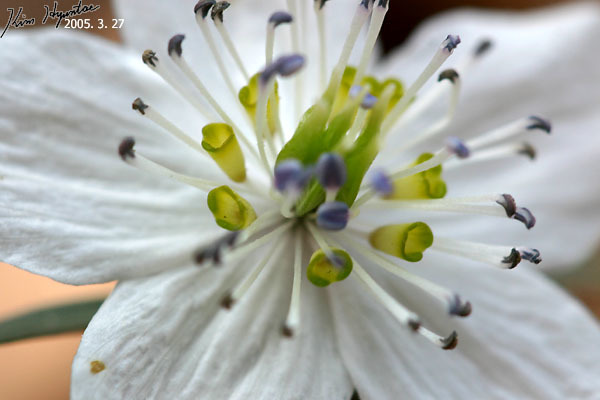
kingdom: Plantae
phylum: Tracheophyta
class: Magnoliopsida
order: Ranunculales
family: Ranunculaceae
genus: Eranthis
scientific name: Eranthis pinnatifida
